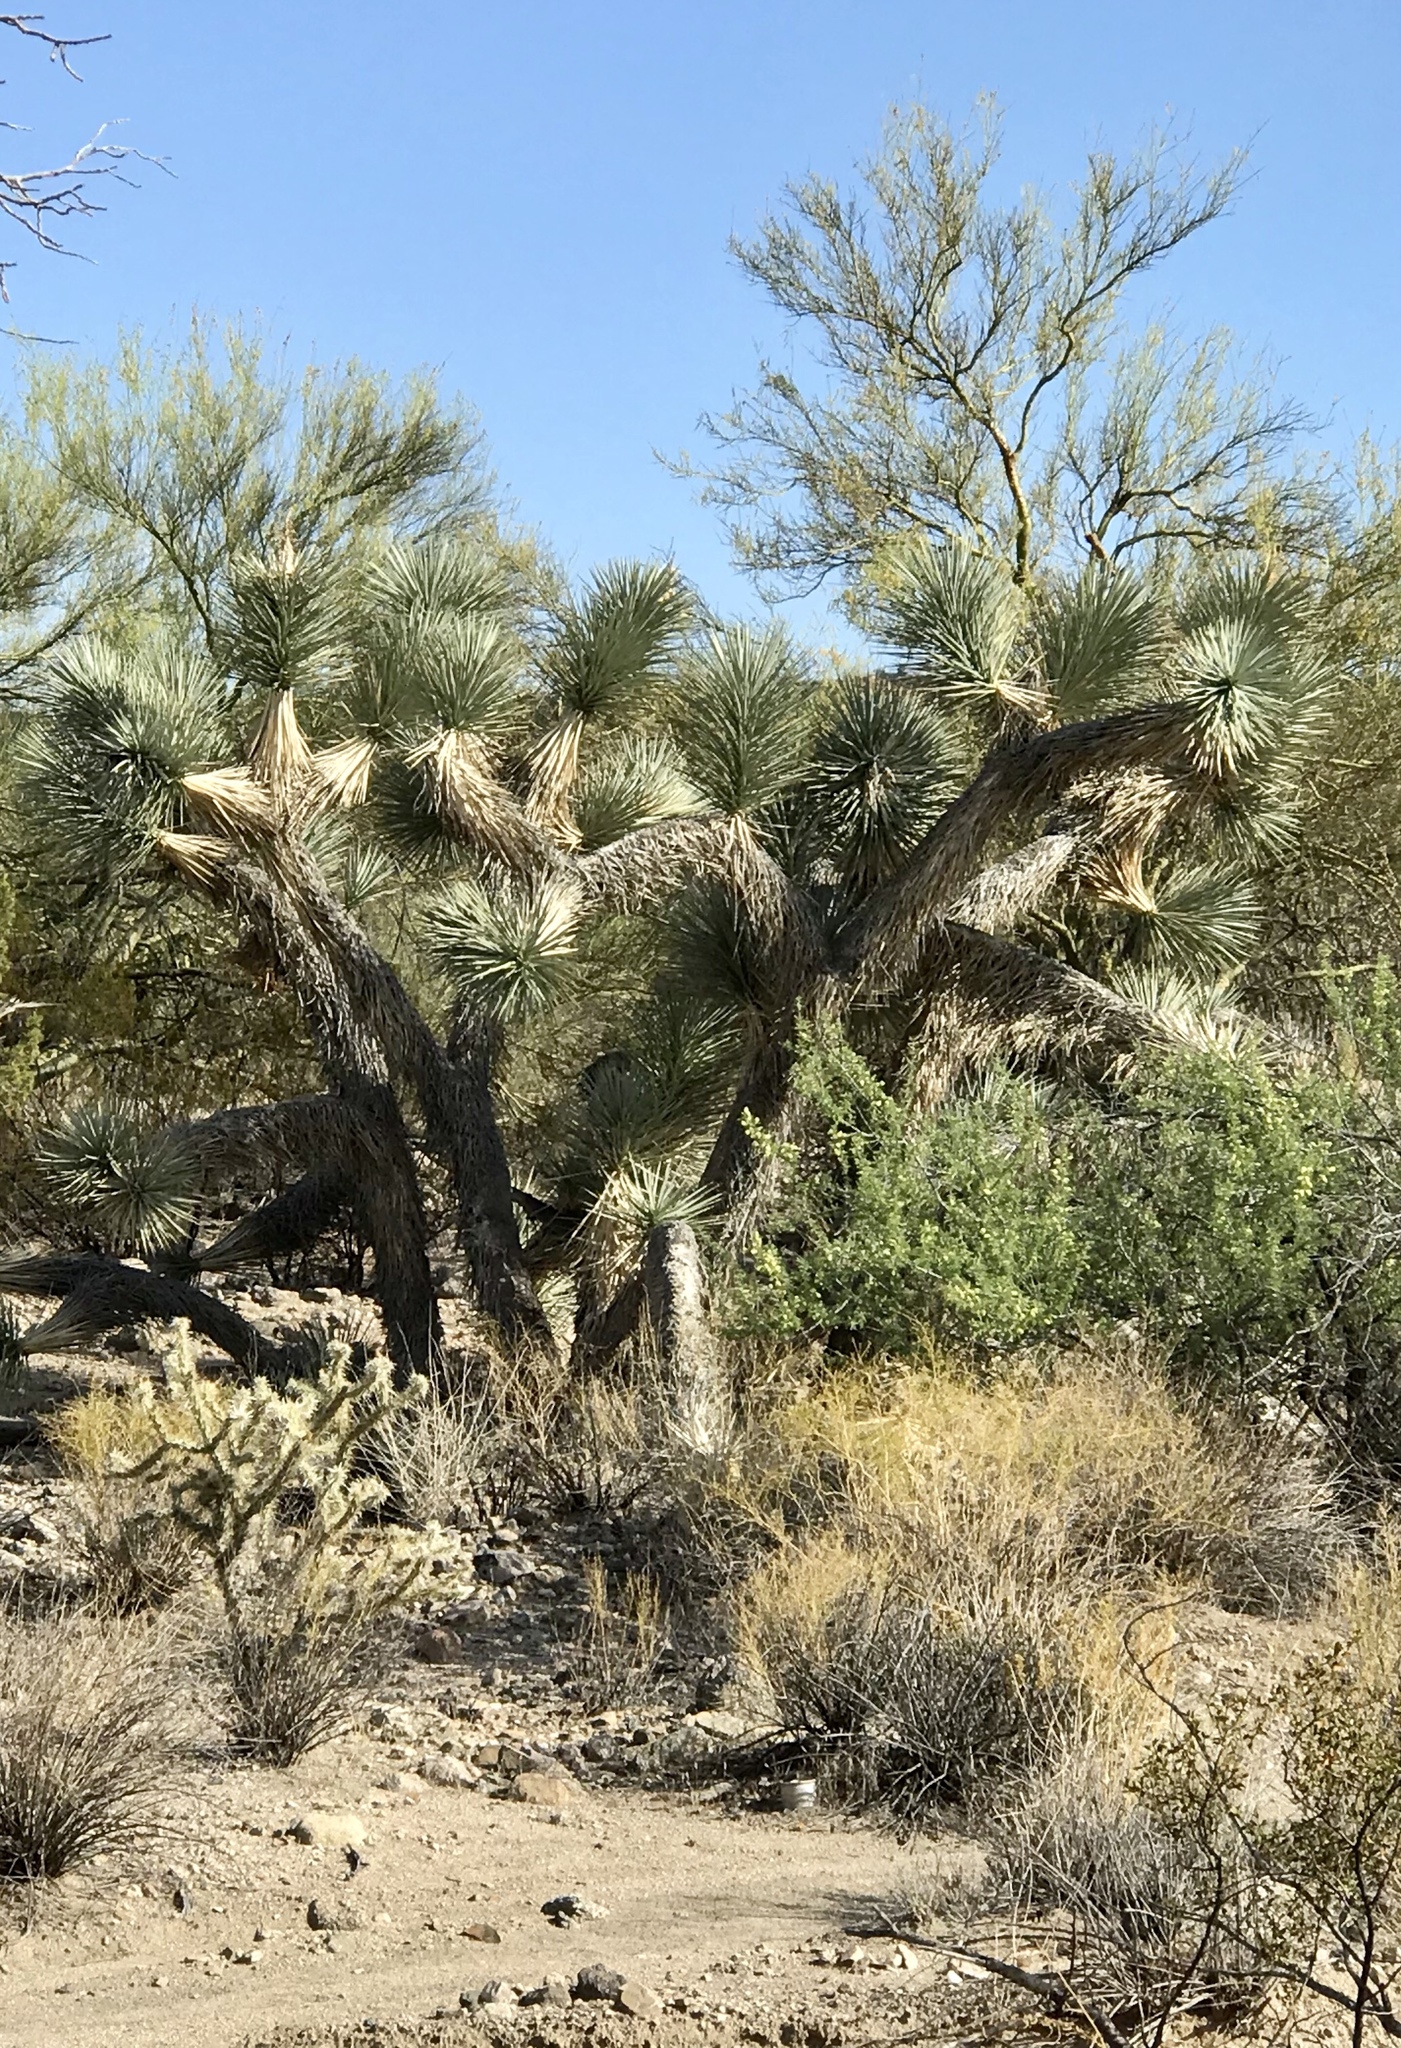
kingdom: Plantae
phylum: Tracheophyta
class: Liliopsida
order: Asparagales
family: Asparagaceae
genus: Yucca
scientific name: Yucca brevifolia
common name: Joshua tree
